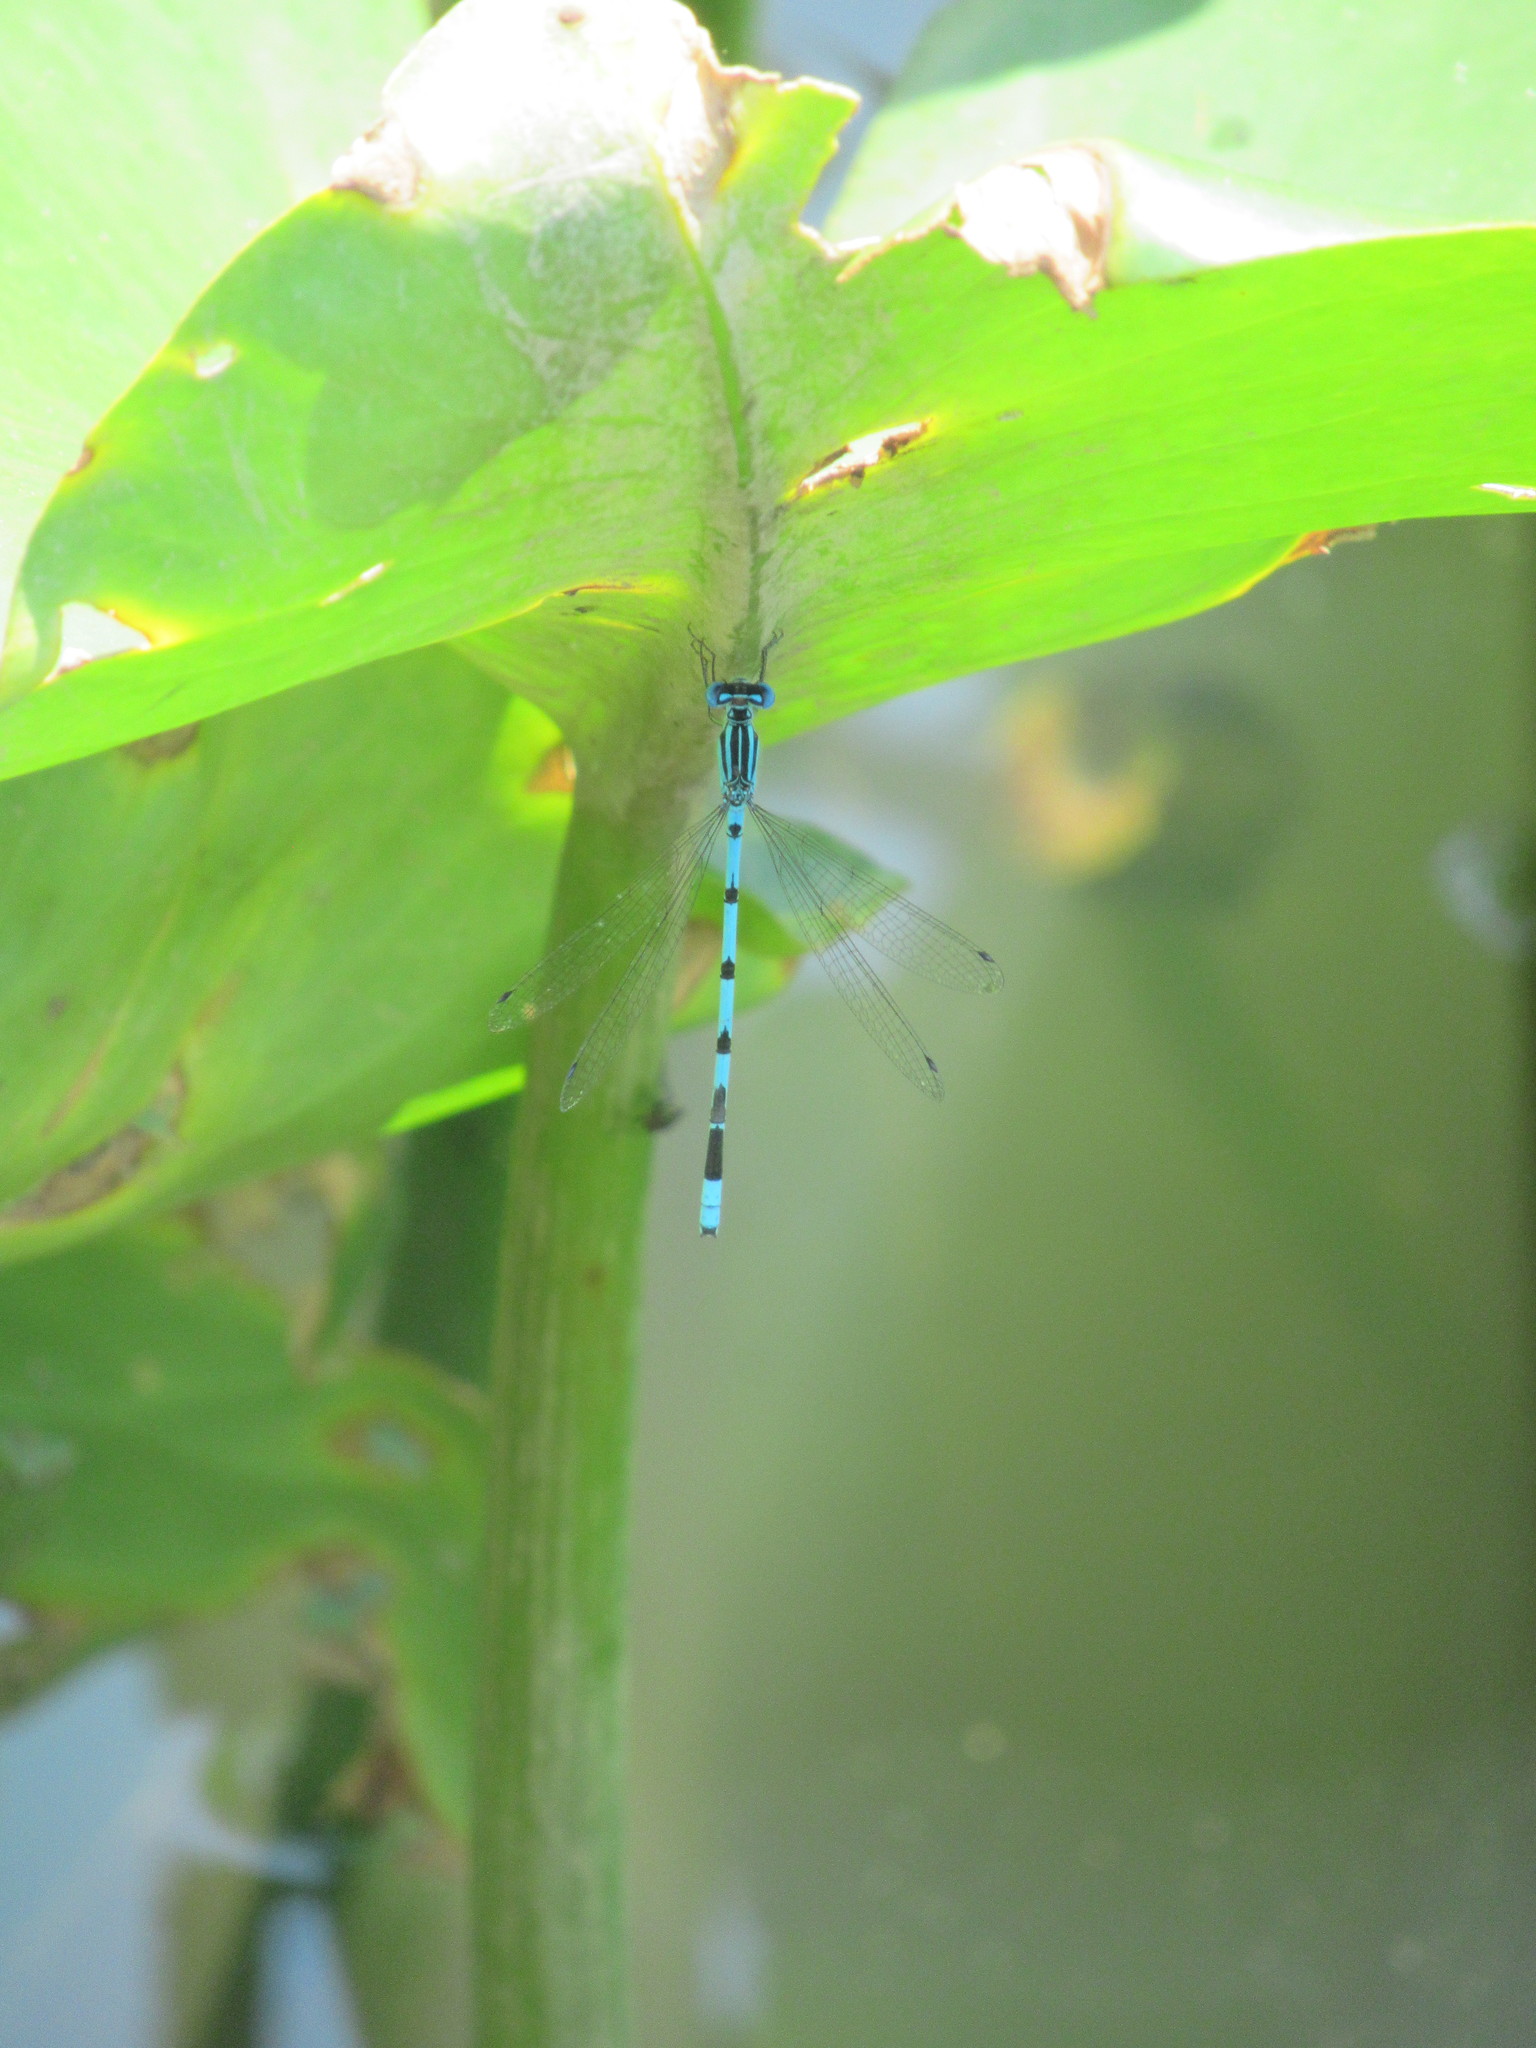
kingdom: Animalia
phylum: Arthropoda
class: Insecta
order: Odonata
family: Coenagrionidae
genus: Enallagma
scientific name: Enallagma durum
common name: Big bluet
